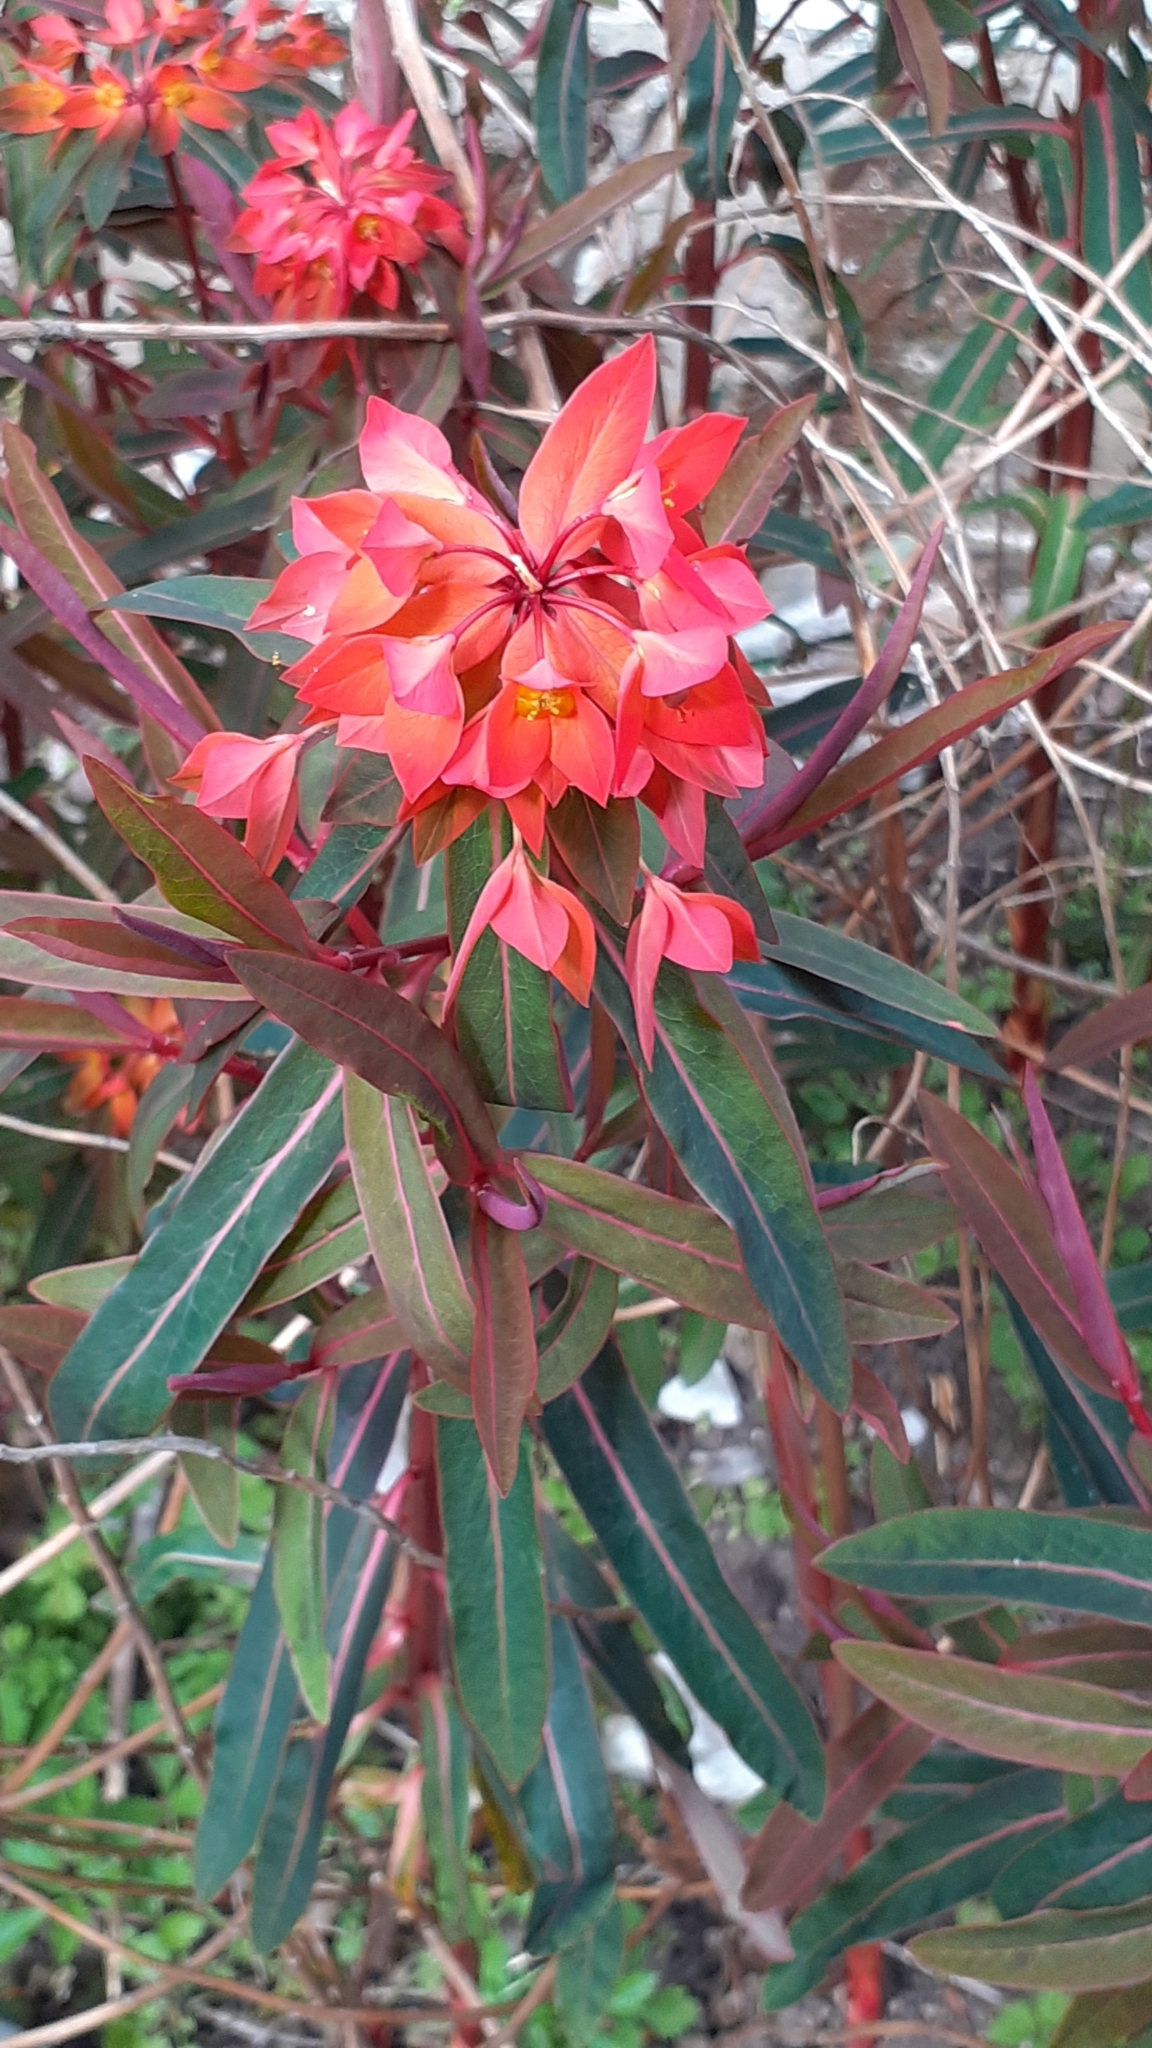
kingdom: Plantae
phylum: Tracheophyta
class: Magnoliopsida
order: Malpighiales
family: Euphorbiaceae
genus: Euphorbia
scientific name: Euphorbia griffithii
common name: Griffith's spurge
